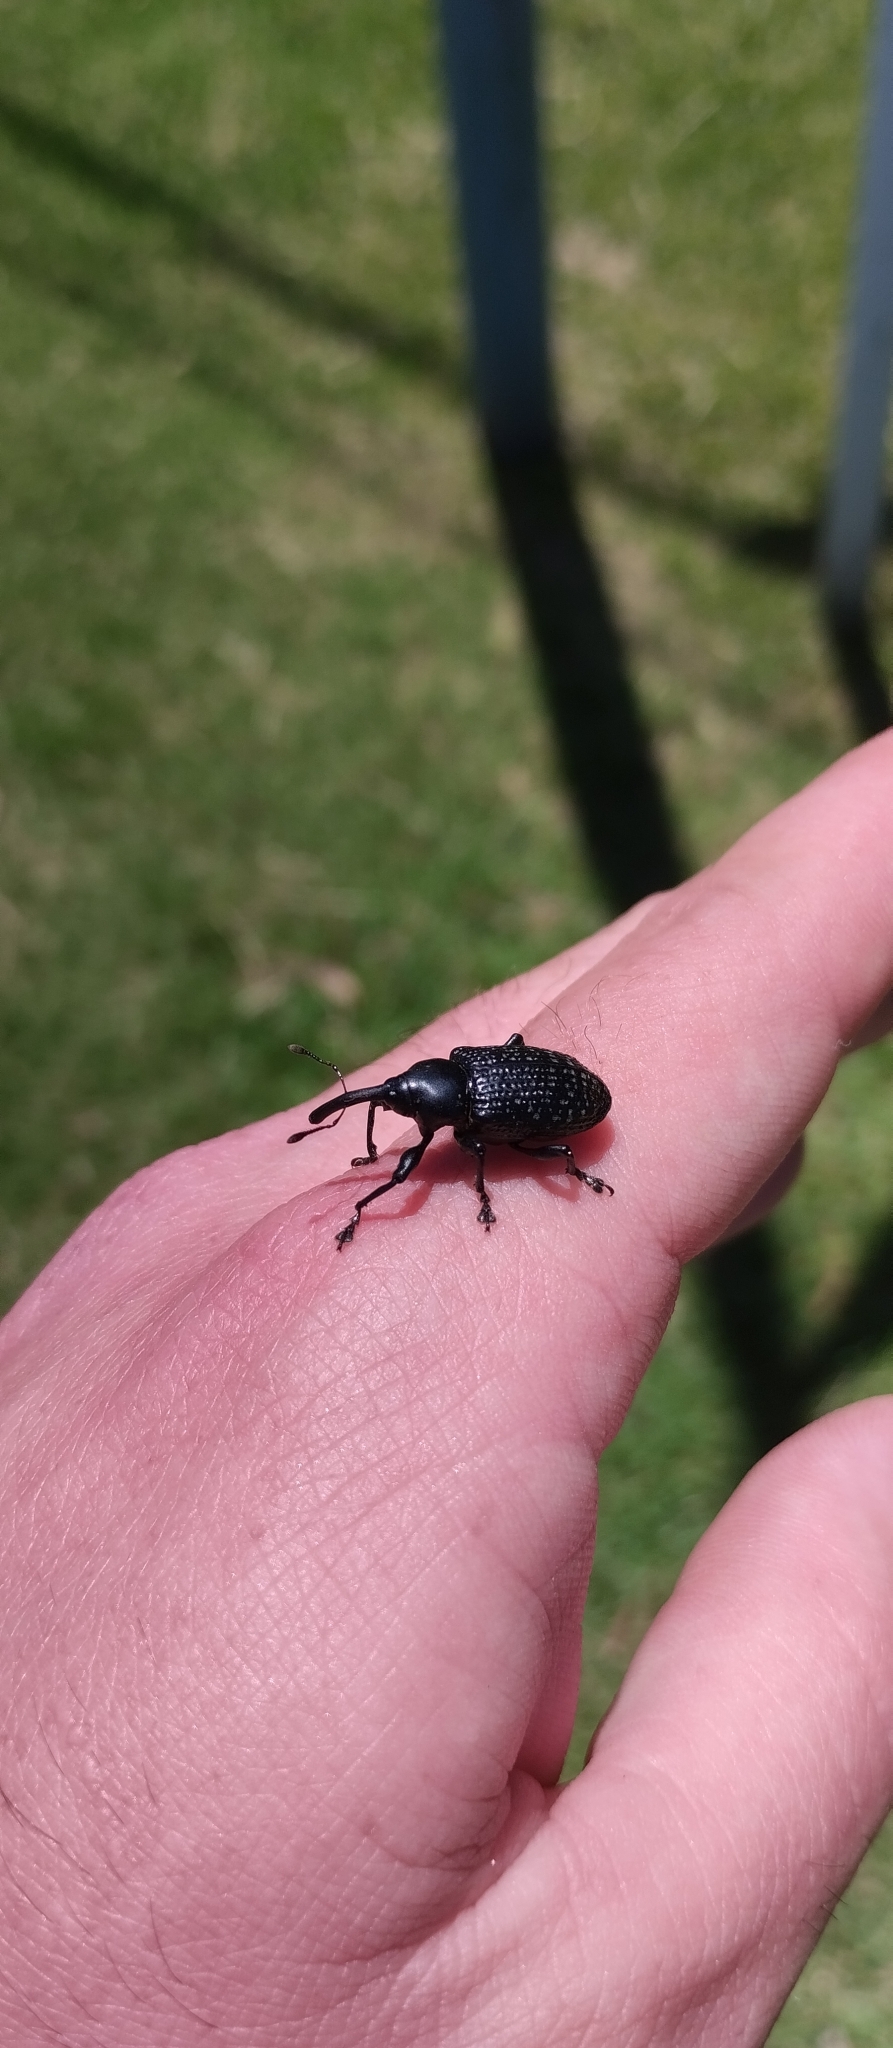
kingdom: Animalia
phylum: Arthropoda
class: Insecta
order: Coleoptera
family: Curculionidae
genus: Heilipodus
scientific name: Heilipodus scabripennis
